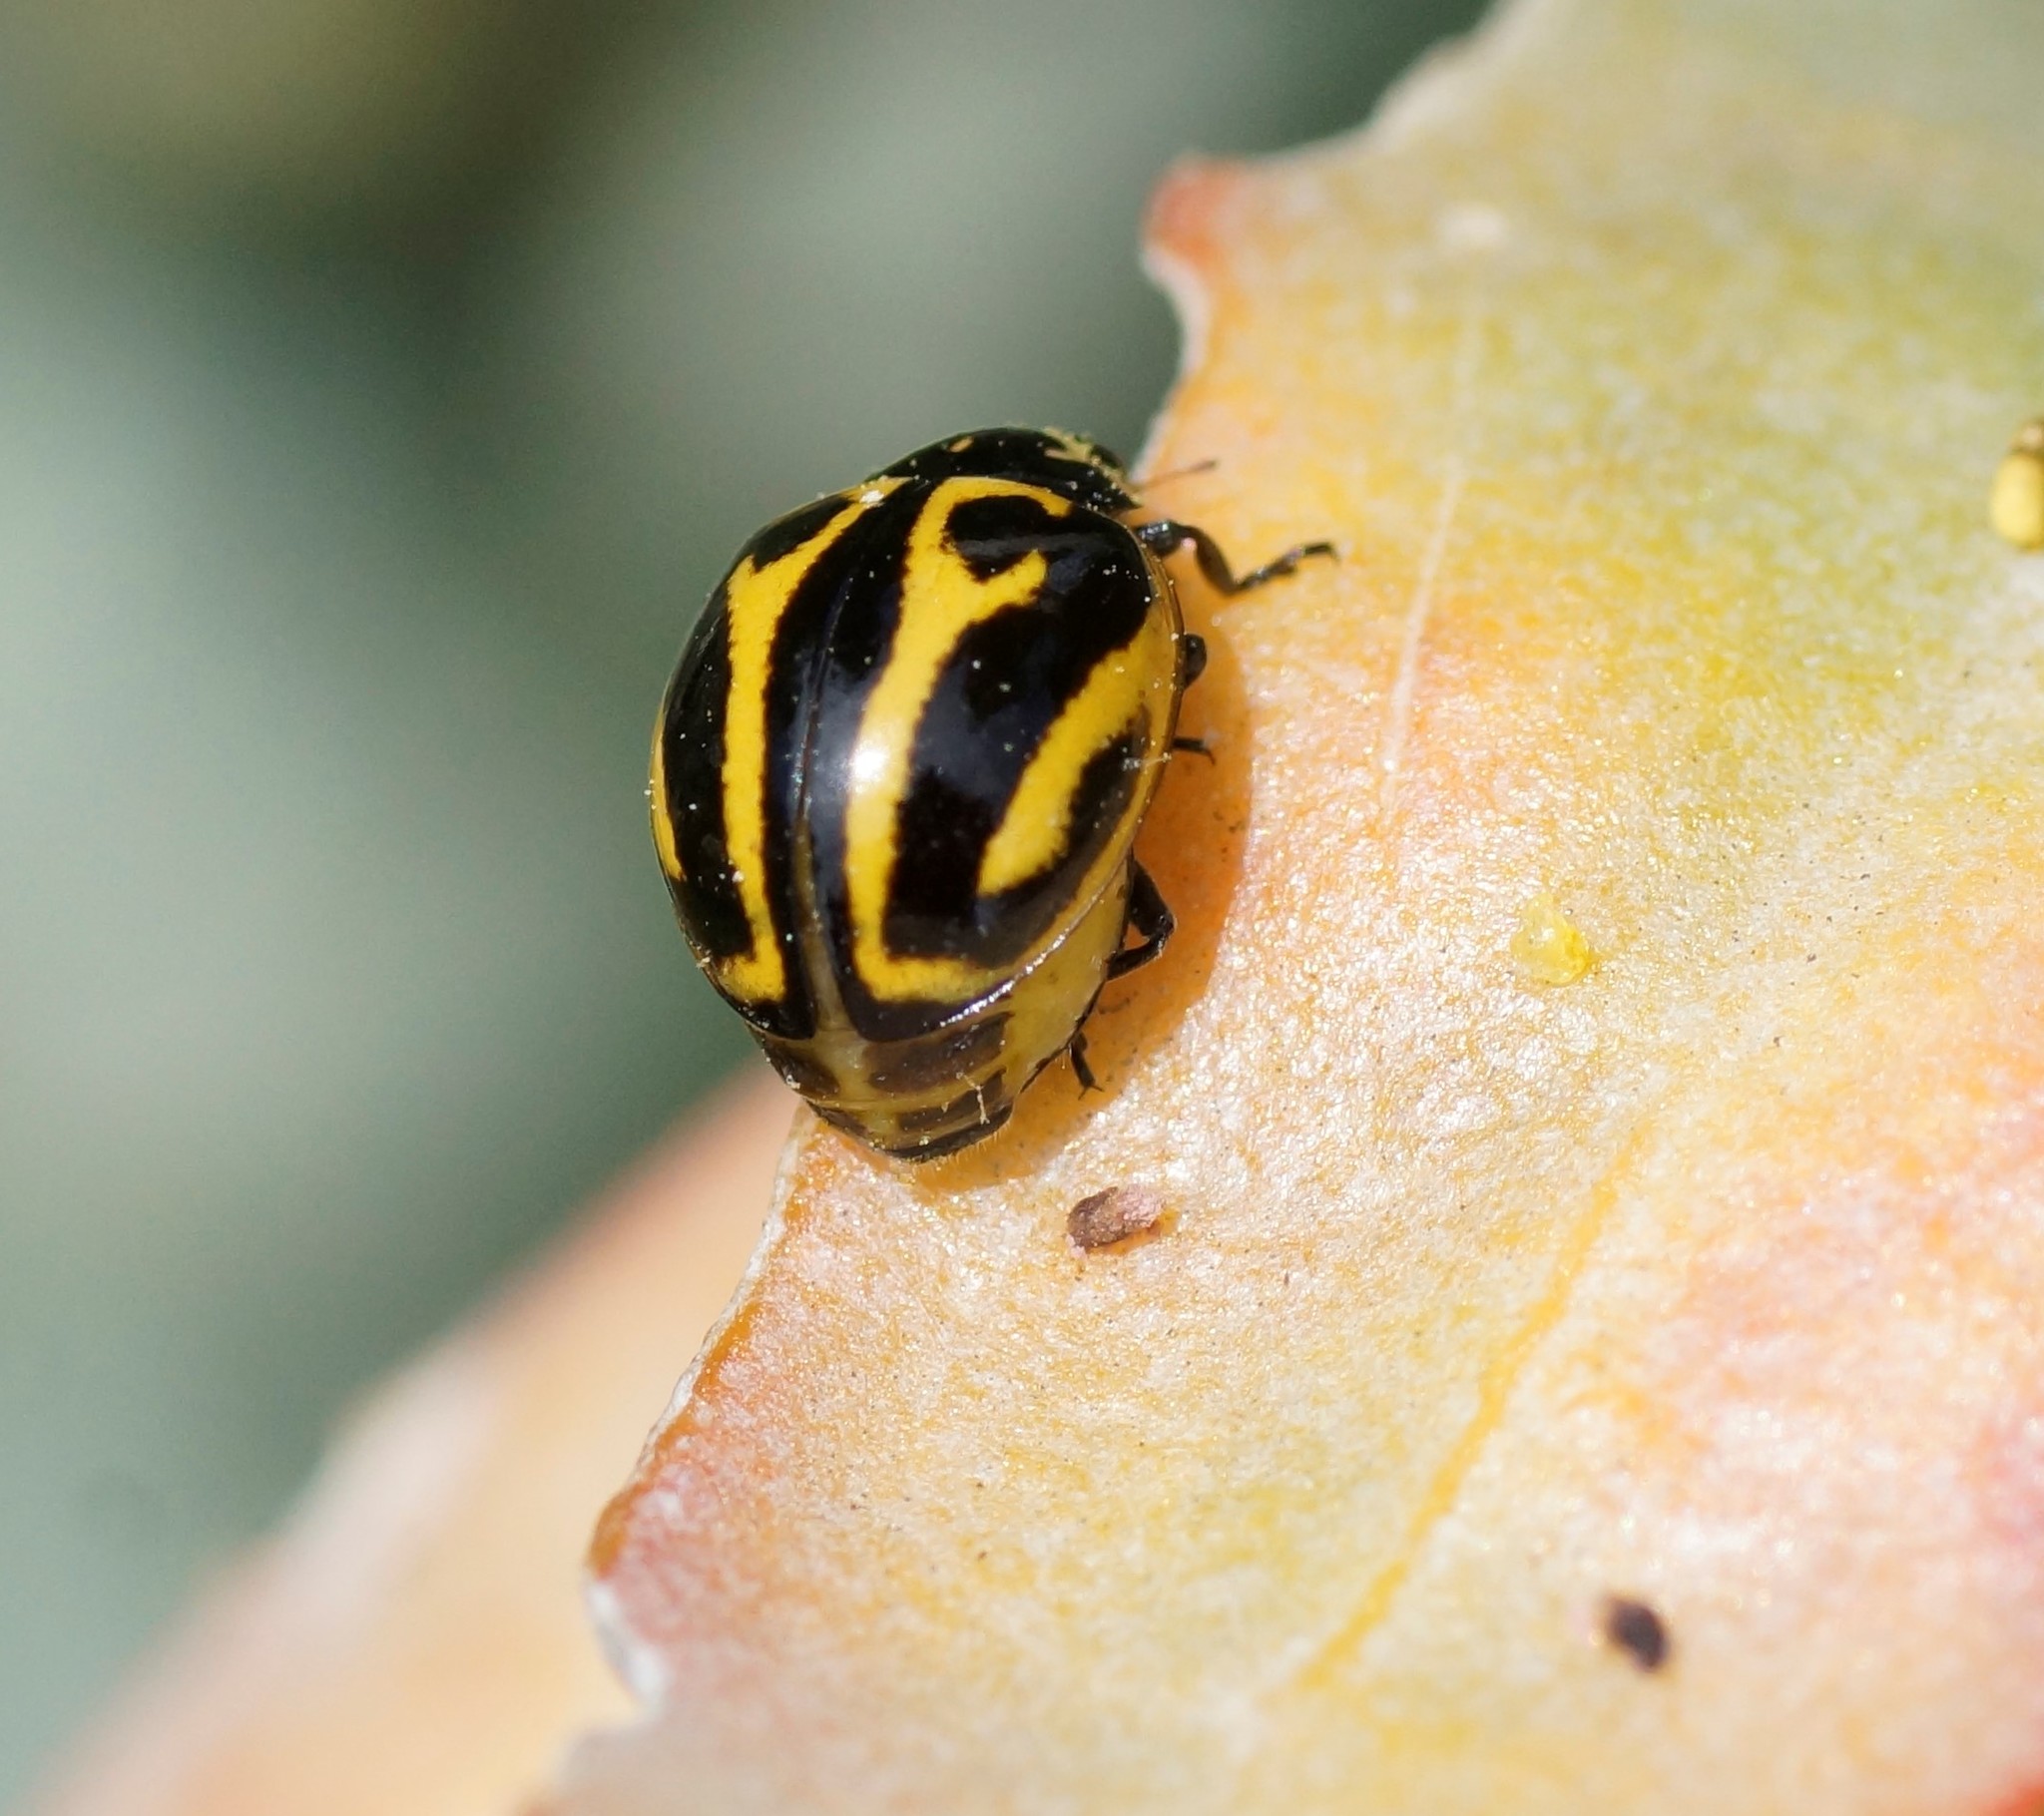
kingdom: Animalia
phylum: Arthropoda
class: Insecta
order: Coleoptera
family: Coccinellidae
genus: Micraspis
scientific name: Micraspis
